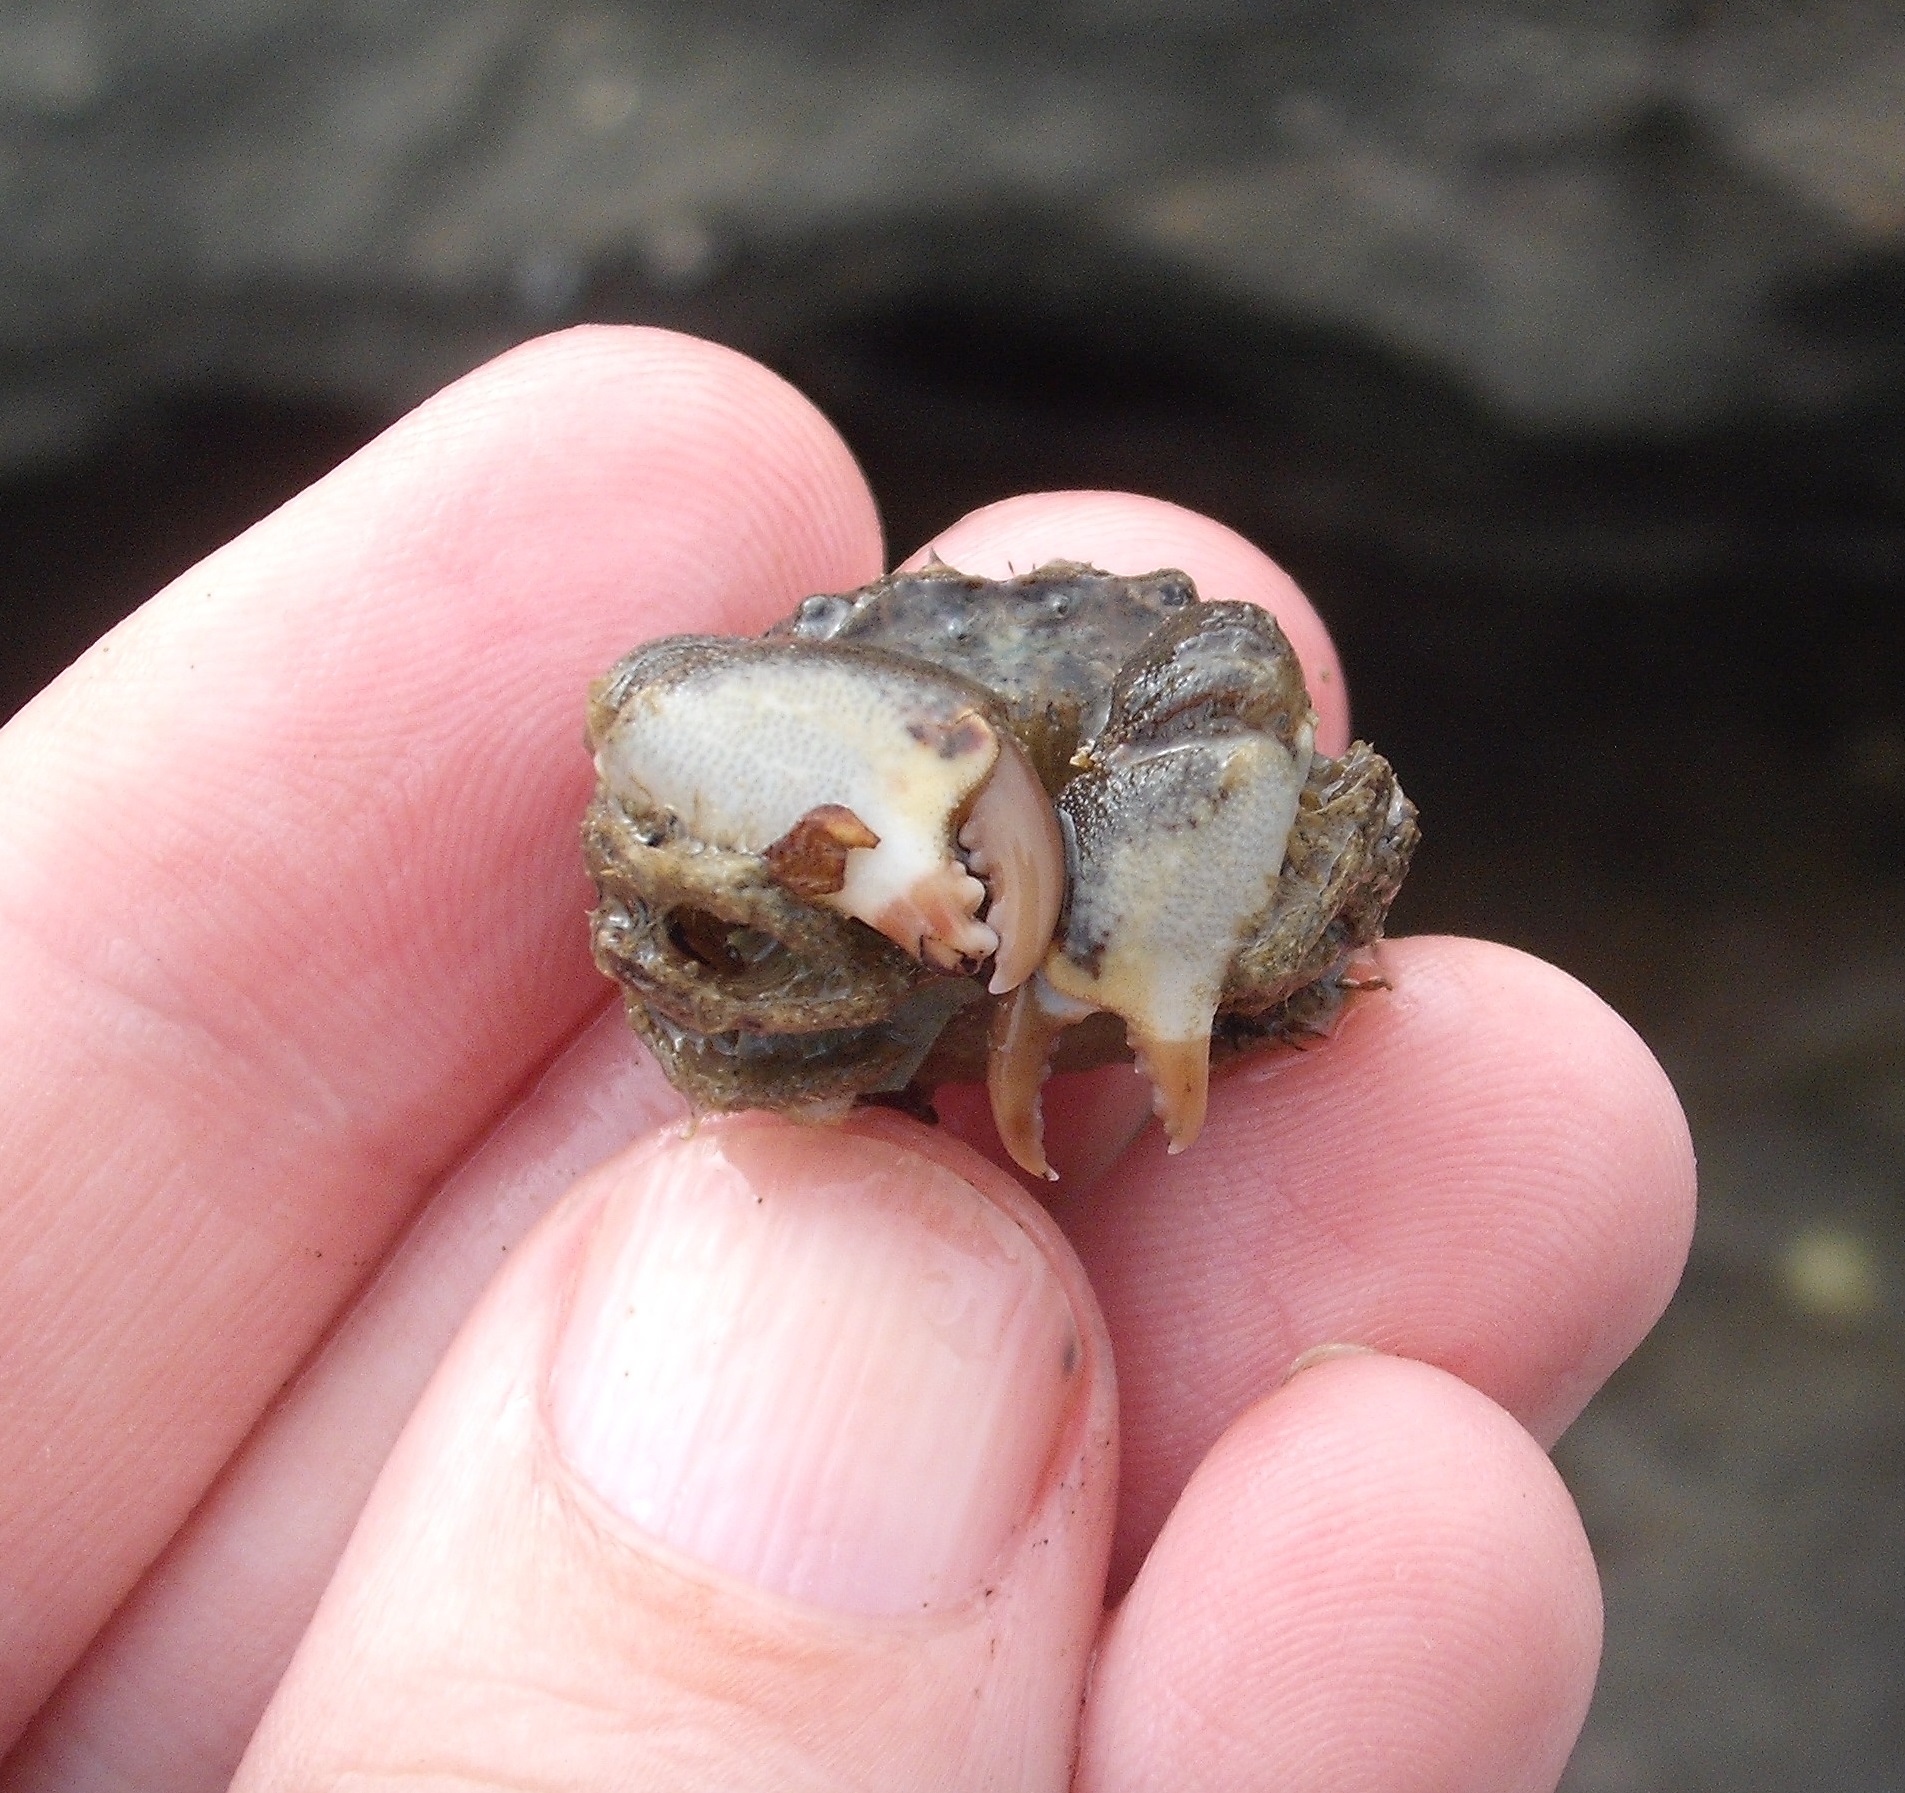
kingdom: Animalia
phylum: Arthropoda
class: Malacostraca
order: Decapoda
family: Pilumnidae
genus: Pilumnopeus
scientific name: Pilumnopeus serratifrons
